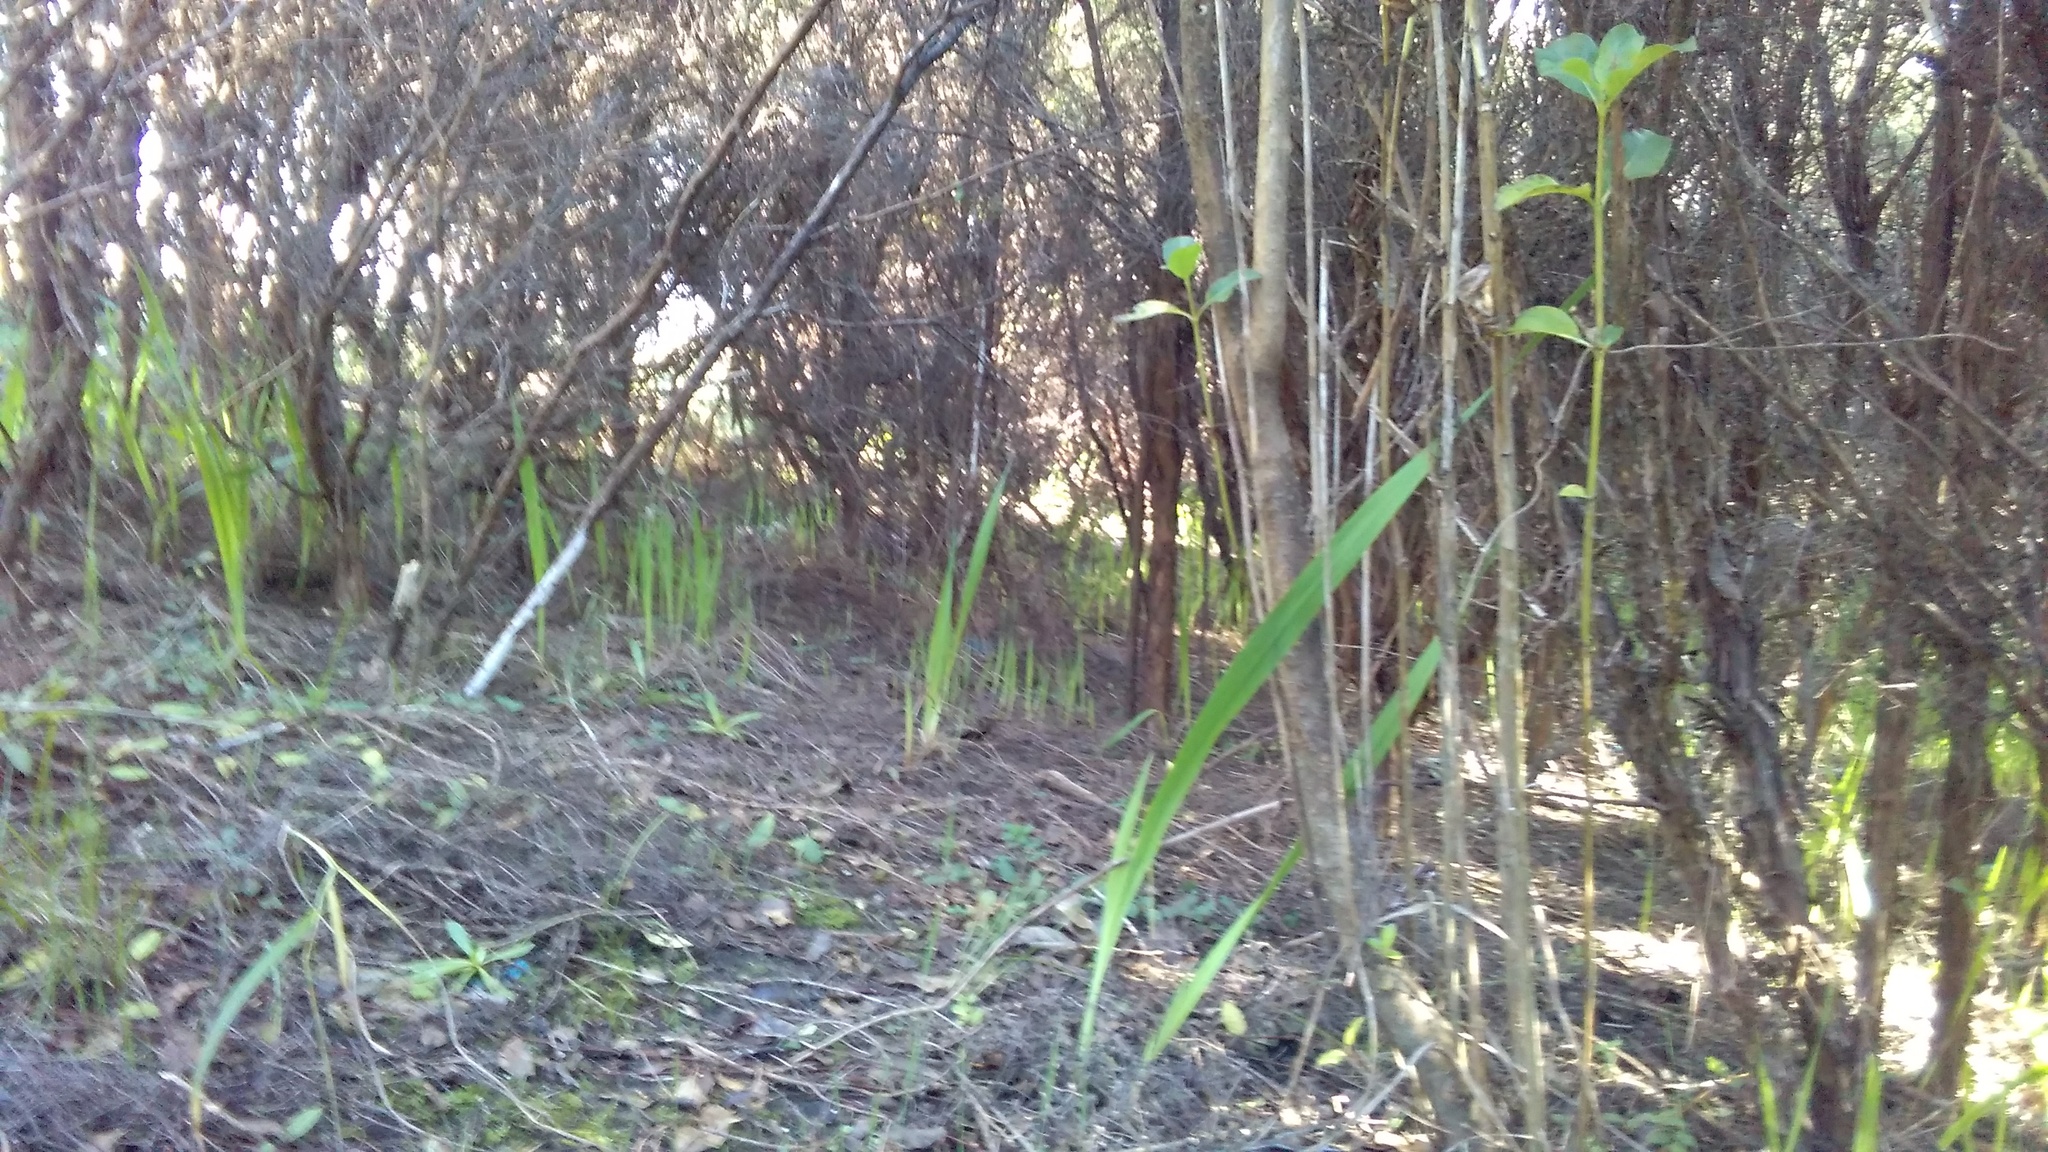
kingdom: Plantae
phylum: Tracheophyta
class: Magnoliopsida
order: Myrtales
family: Myrtaceae
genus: Leptospermum
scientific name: Leptospermum scoparium
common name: Broom tea-tree
